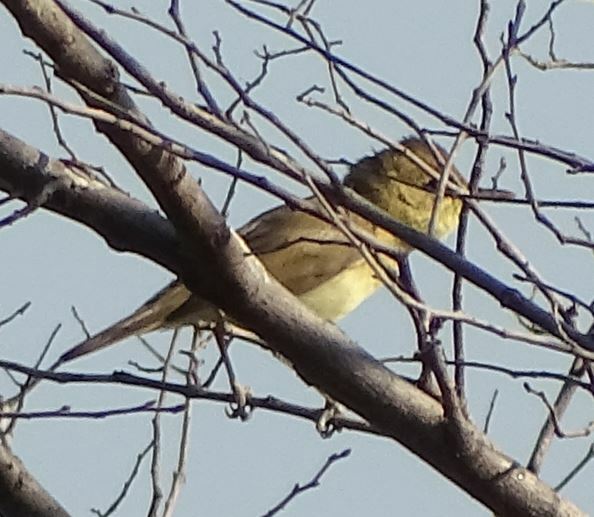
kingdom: Animalia
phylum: Chordata
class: Aves
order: Passeriformes
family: Acrocephalidae
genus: Hippolais
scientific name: Hippolais polyglotta
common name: Melodious warbler
